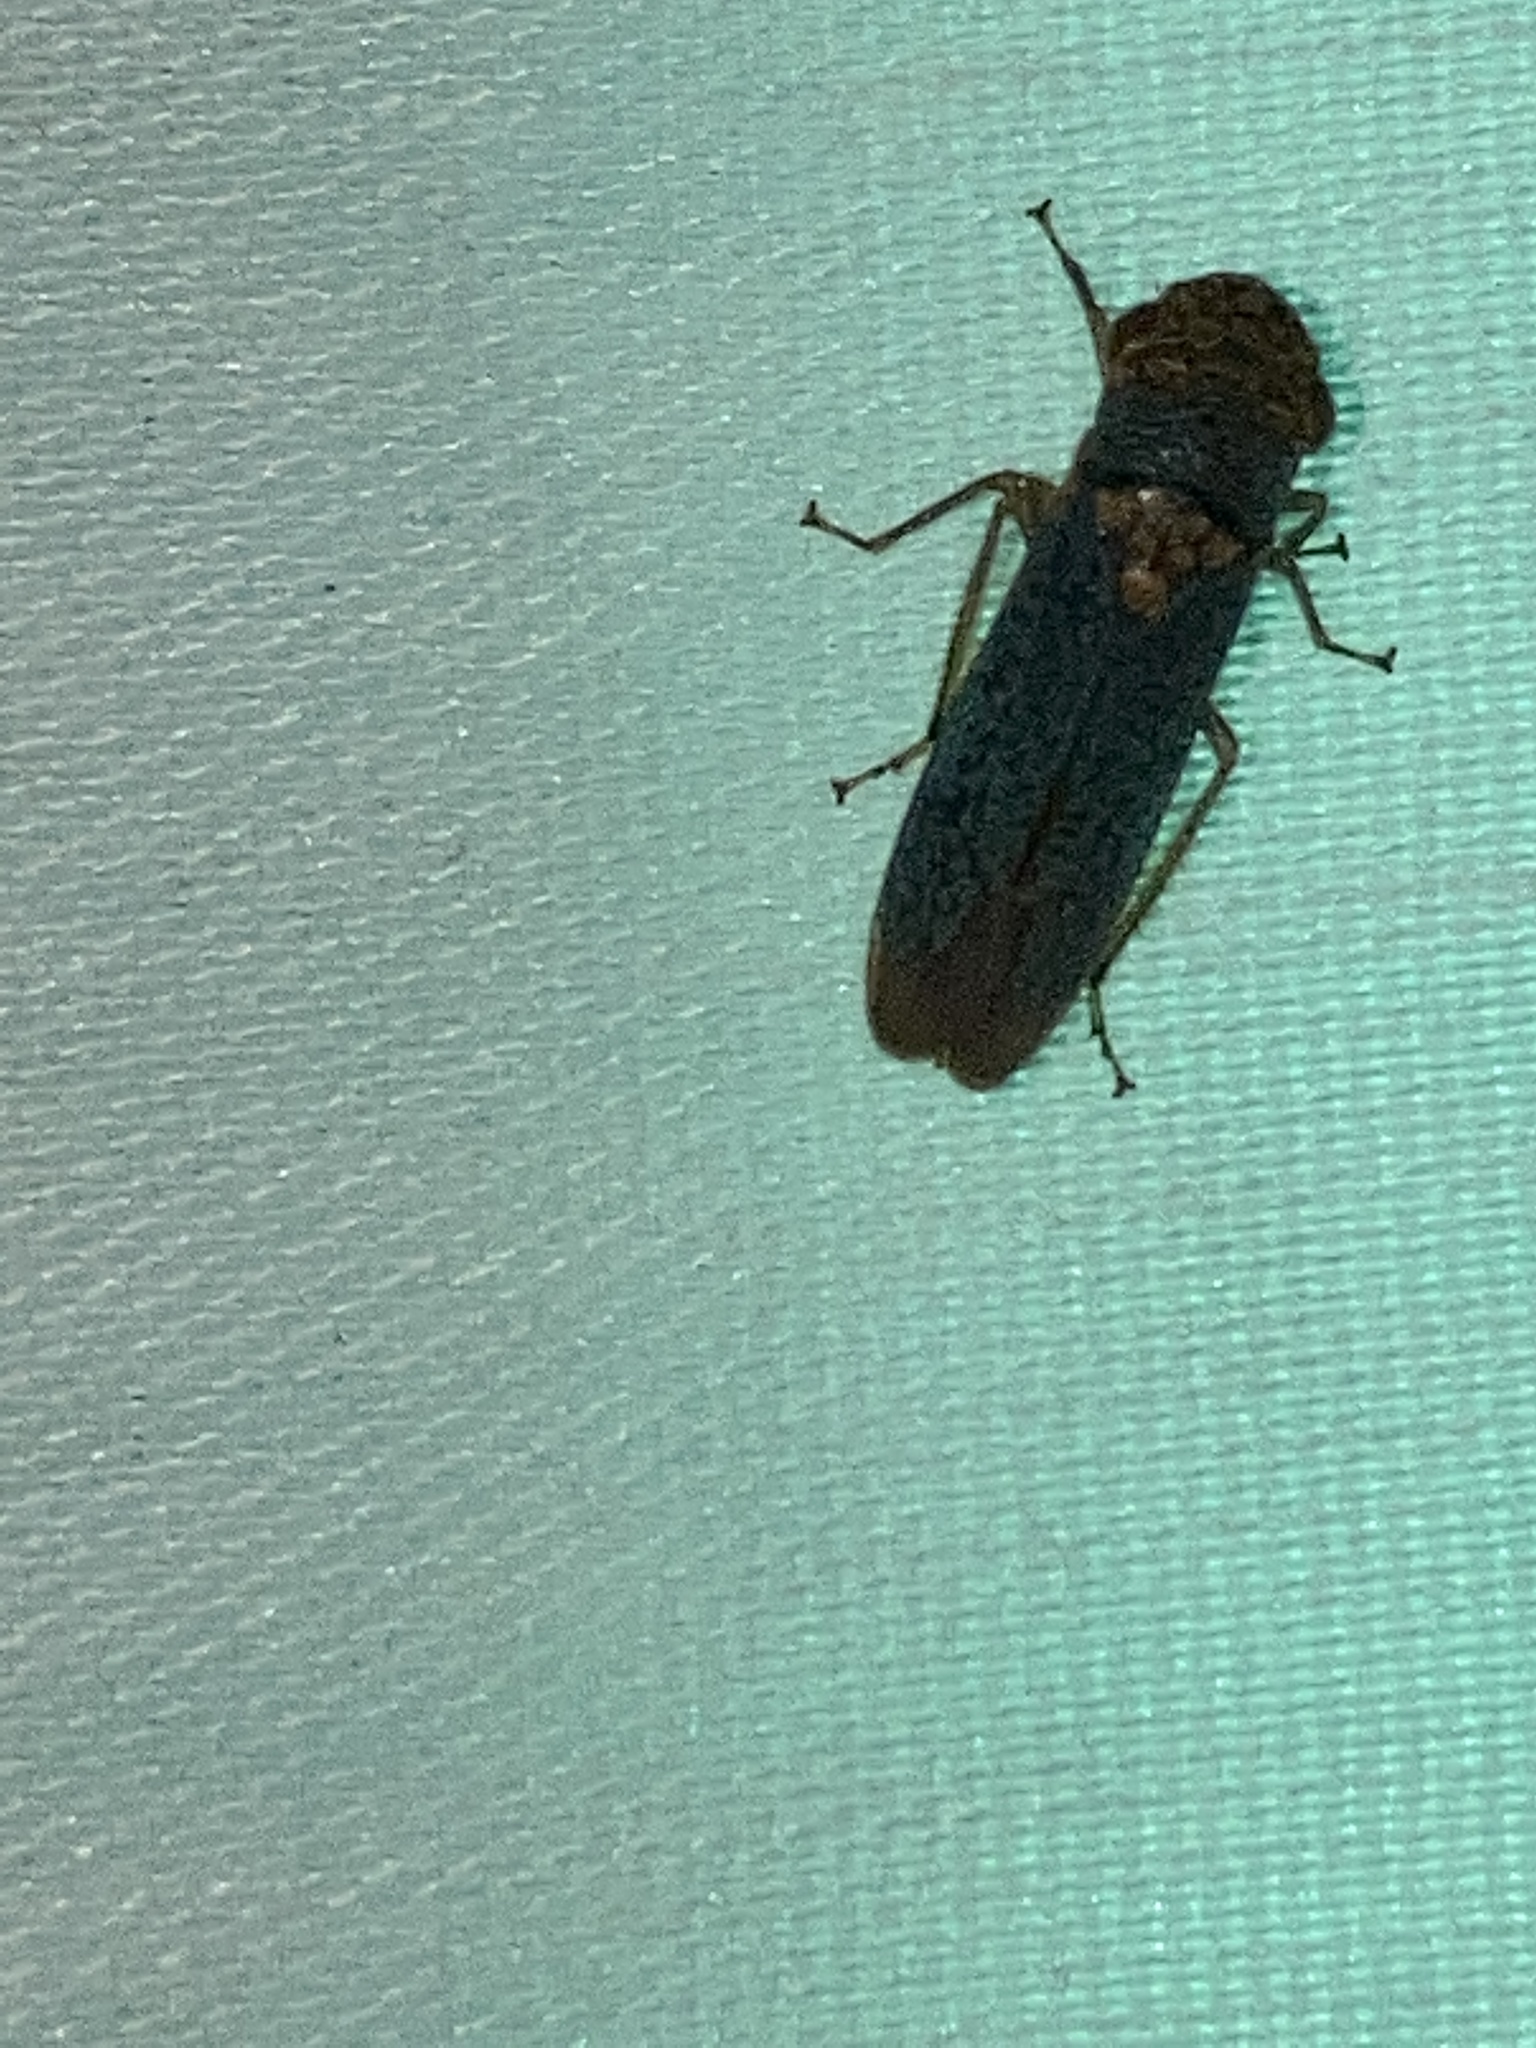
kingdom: Animalia
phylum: Arthropoda
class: Insecta
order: Hemiptera
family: Cicadellidae
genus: Oncometopia
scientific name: Oncometopia orbona
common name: Broad-headed sharpshooter
